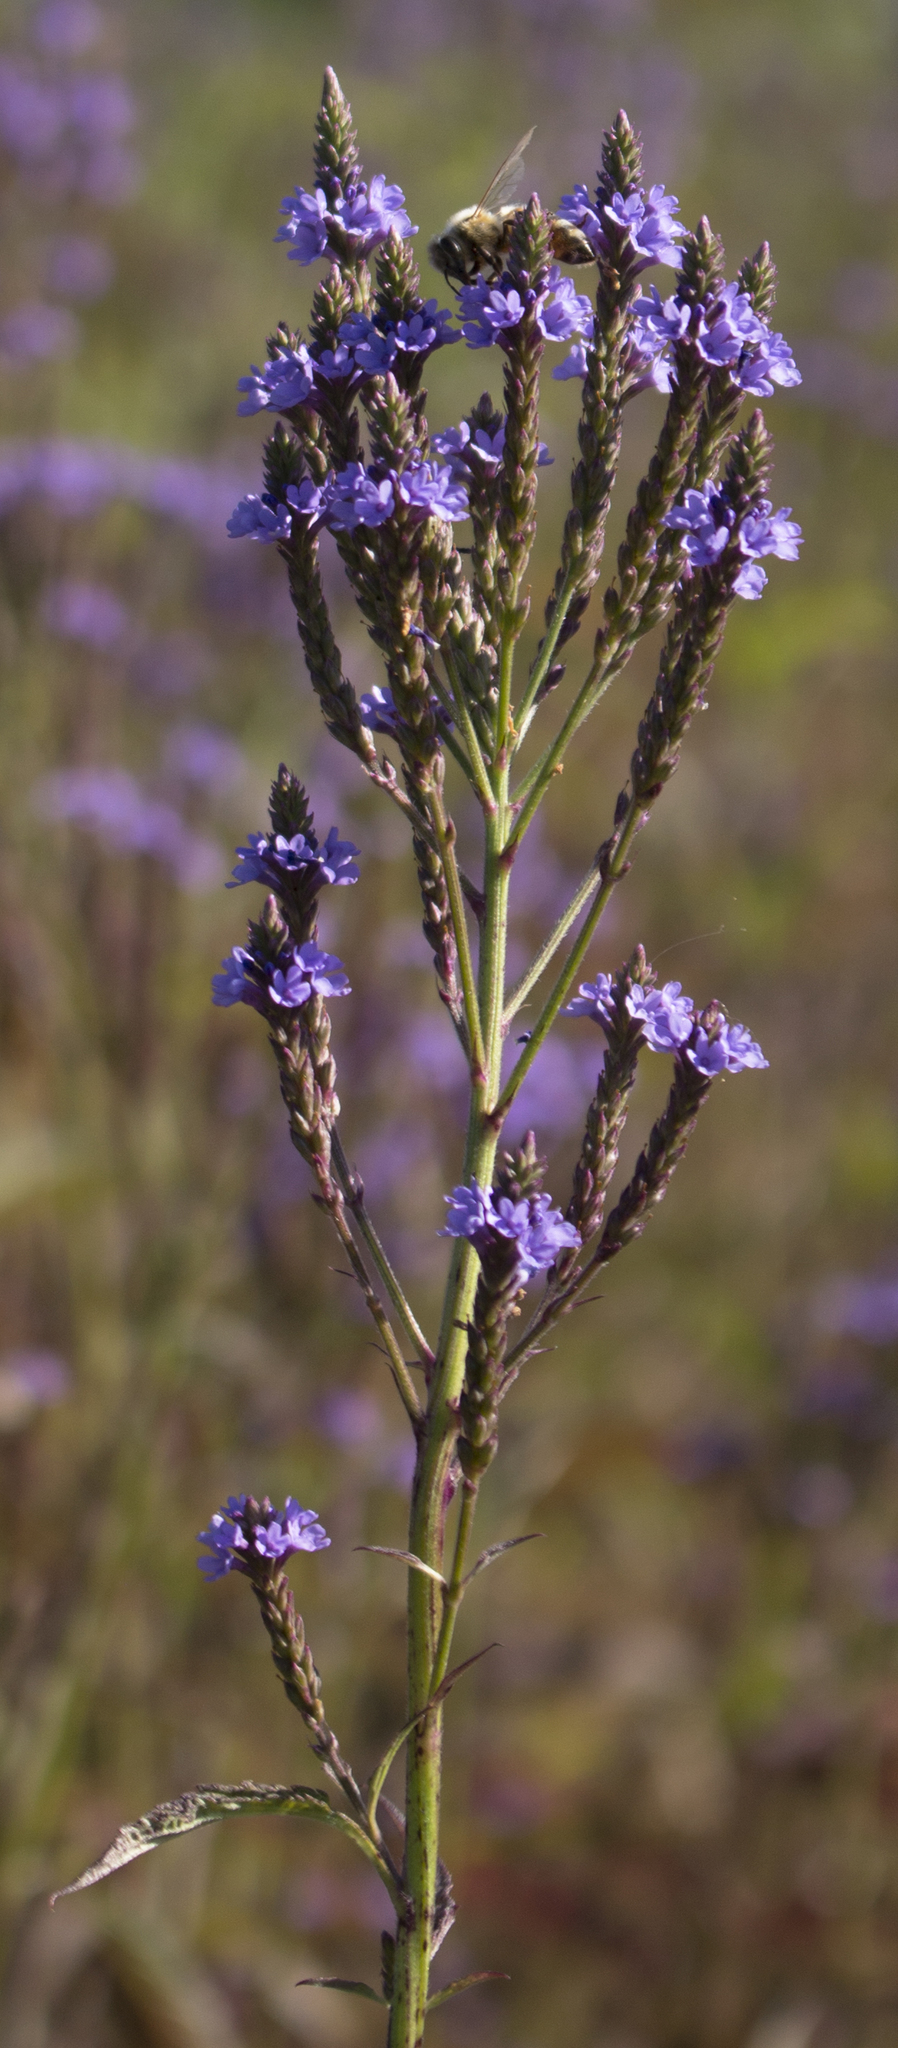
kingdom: Plantae
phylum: Tracheophyta
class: Magnoliopsida
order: Lamiales
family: Verbenaceae
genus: Verbena
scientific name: Verbena hastata
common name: American blue vervain
